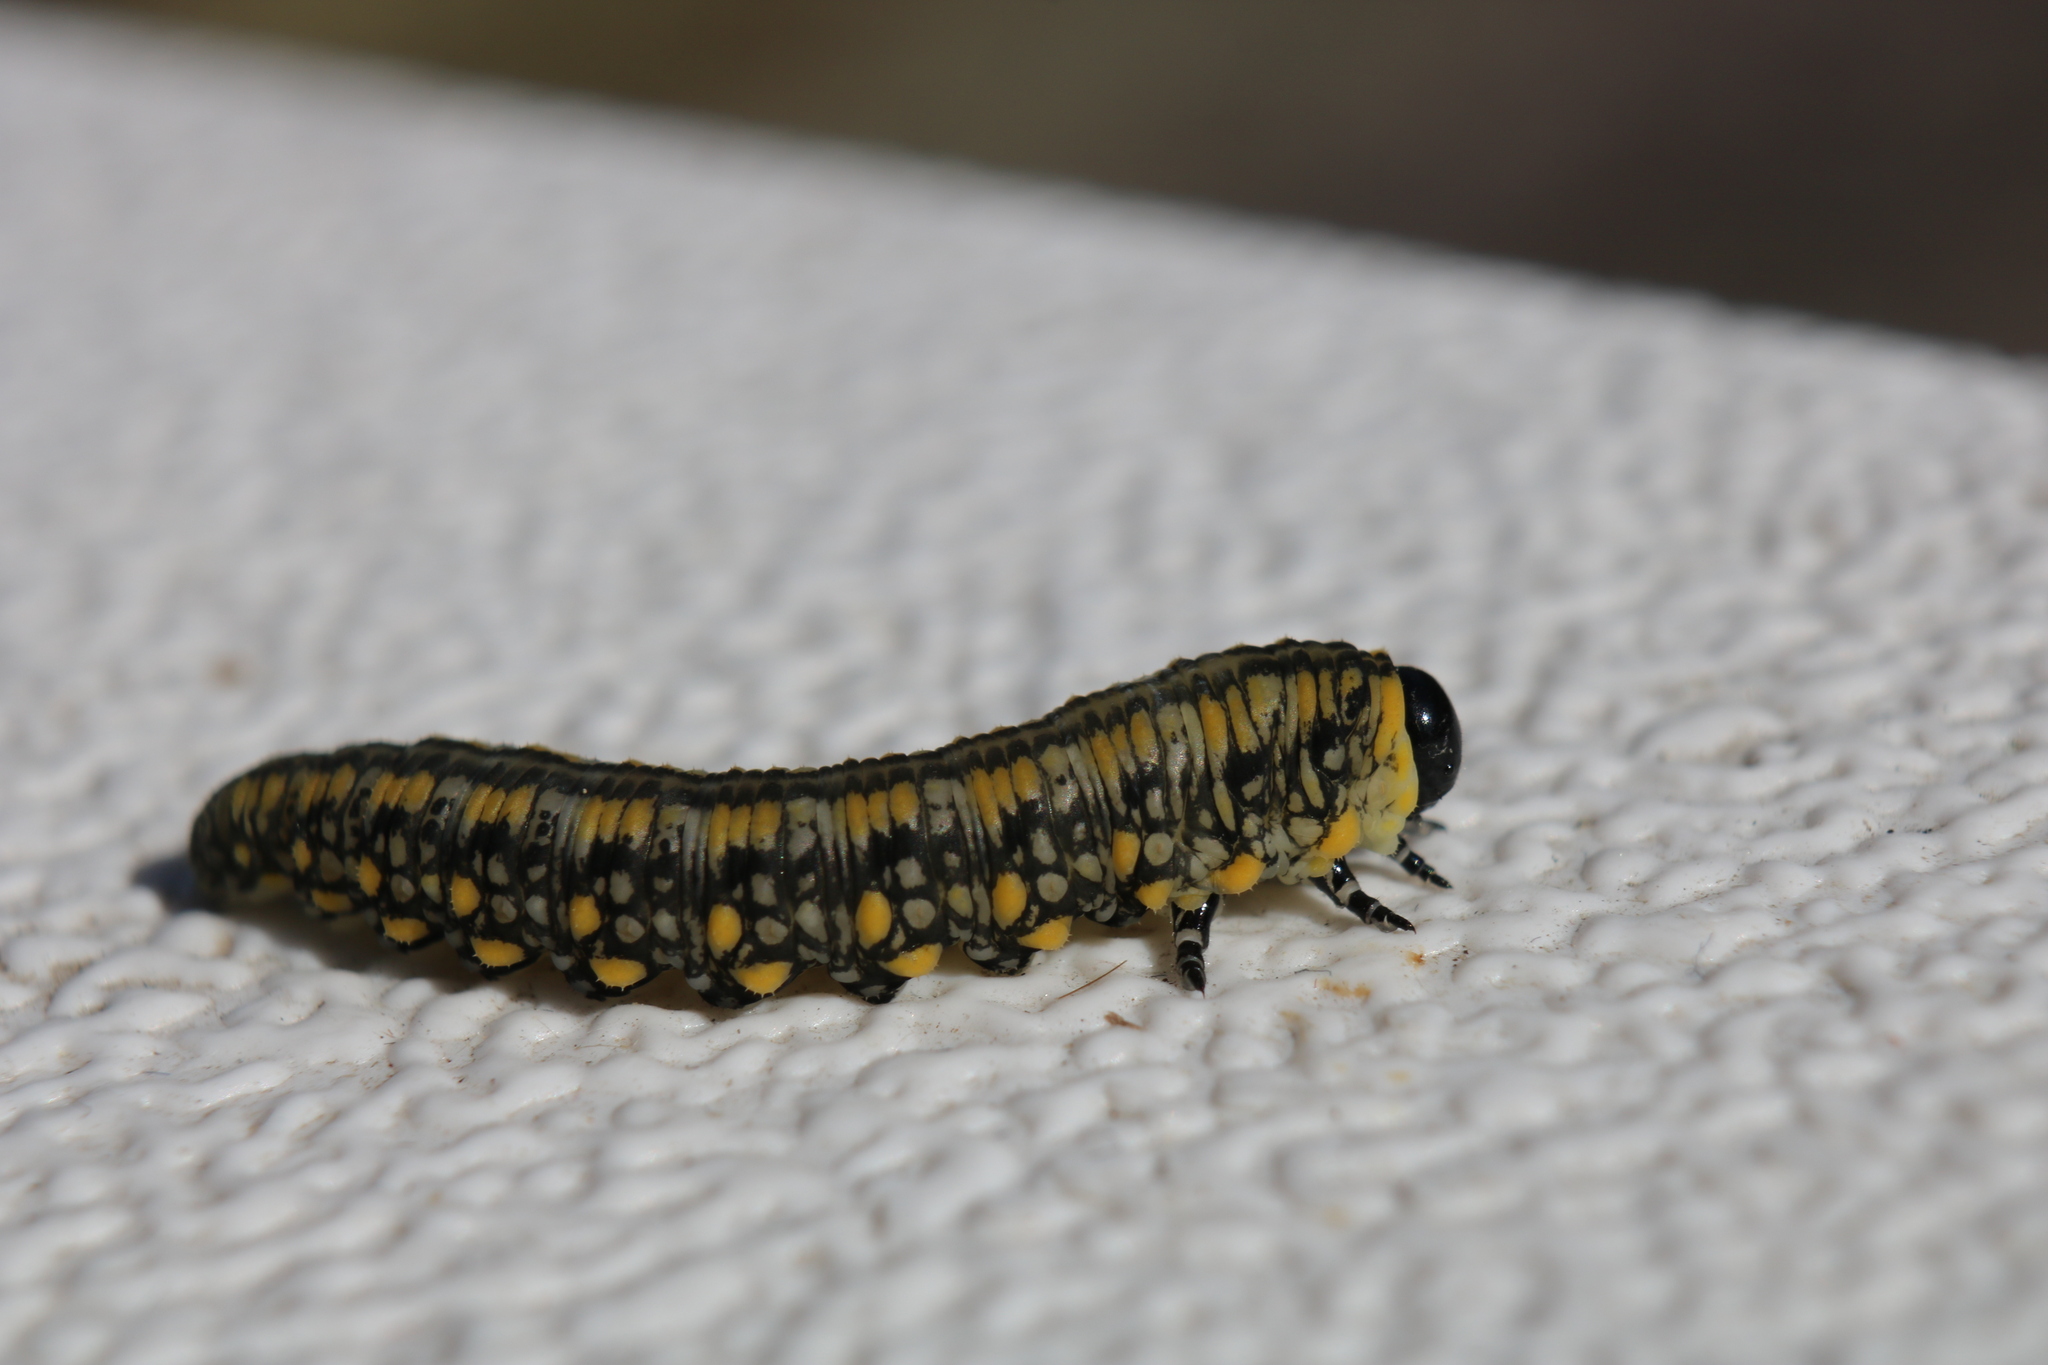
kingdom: Animalia
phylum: Arthropoda
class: Insecta
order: Hymenoptera
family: Diprionidae
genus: Diprion
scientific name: Diprion similis
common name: Pine sawfly
